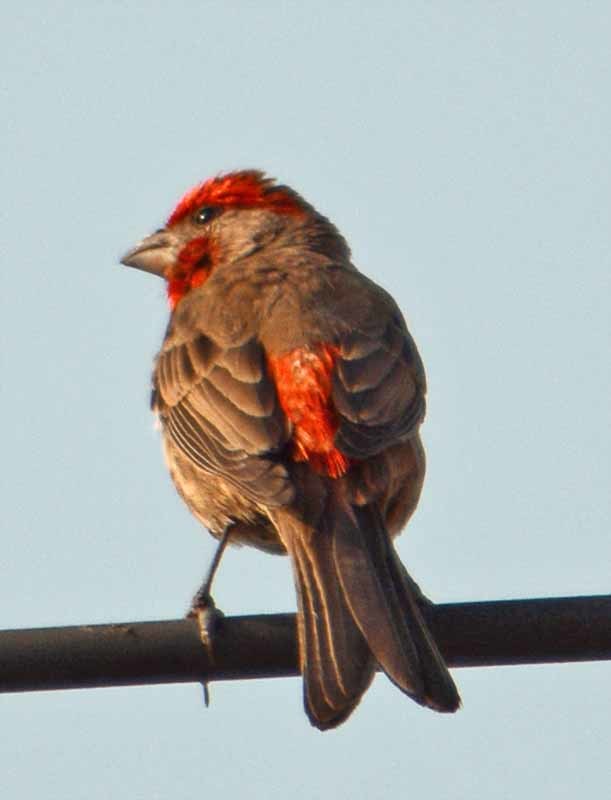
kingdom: Animalia
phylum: Chordata
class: Aves
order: Passeriformes
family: Fringillidae
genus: Haemorhous
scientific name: Haemorhous mexicanus
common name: House finch
